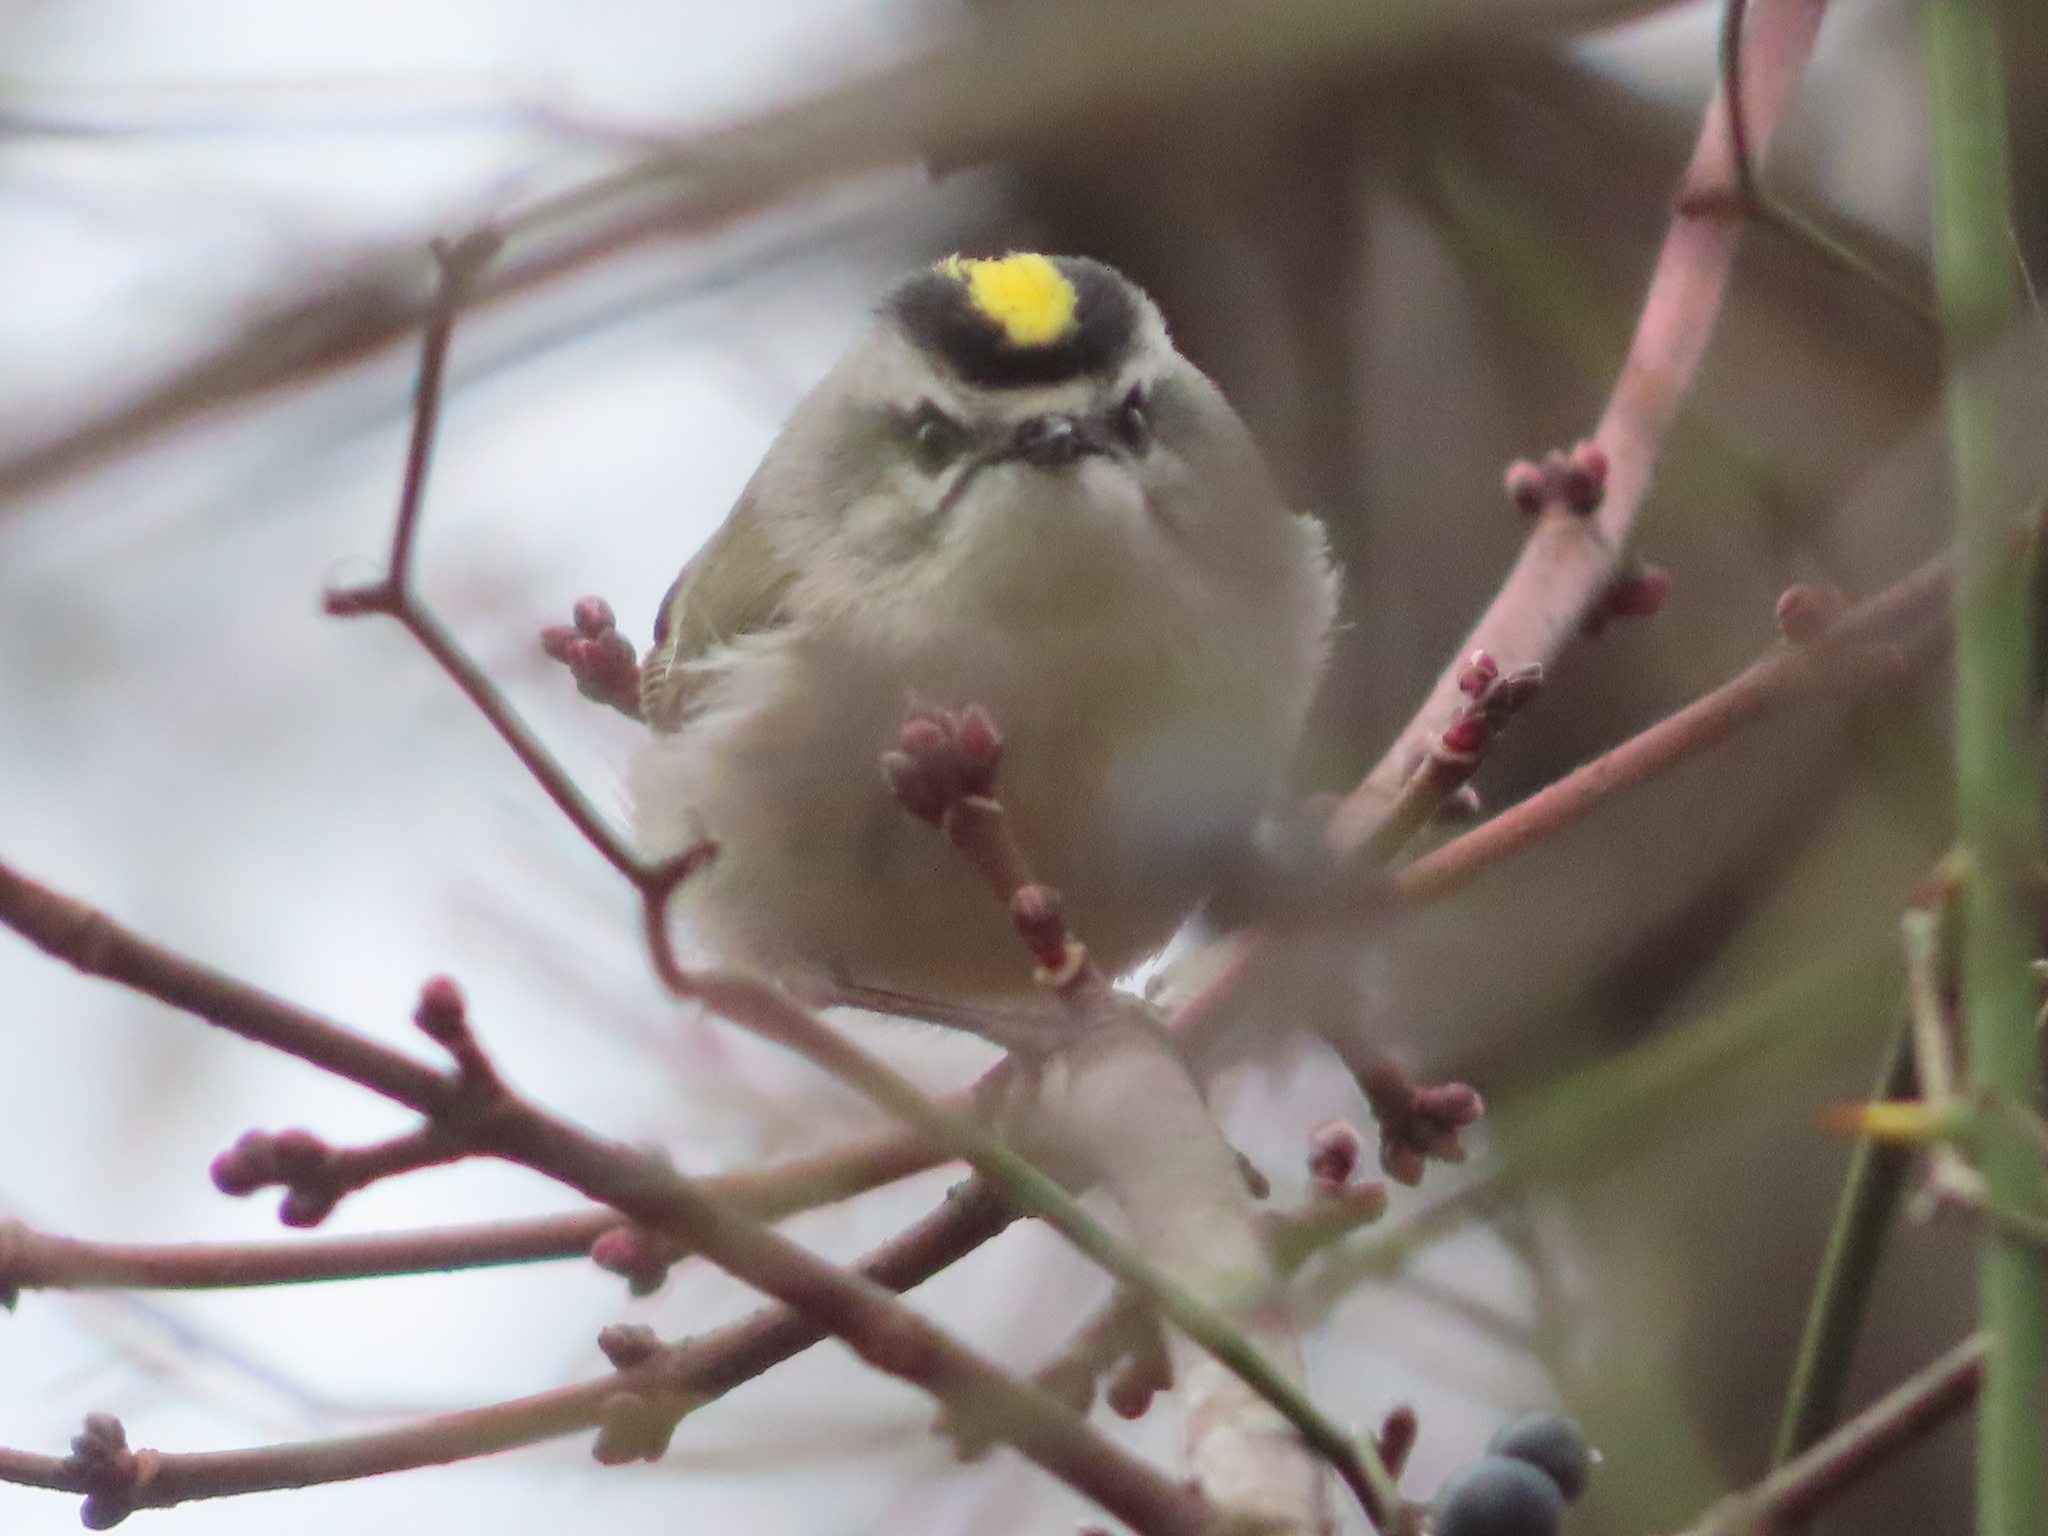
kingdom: Animalia
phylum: Chordata
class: Aves
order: Passeriformes
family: Regulidae
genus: Regulus
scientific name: Regulus satrapa
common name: Golden-crowned kinglet
